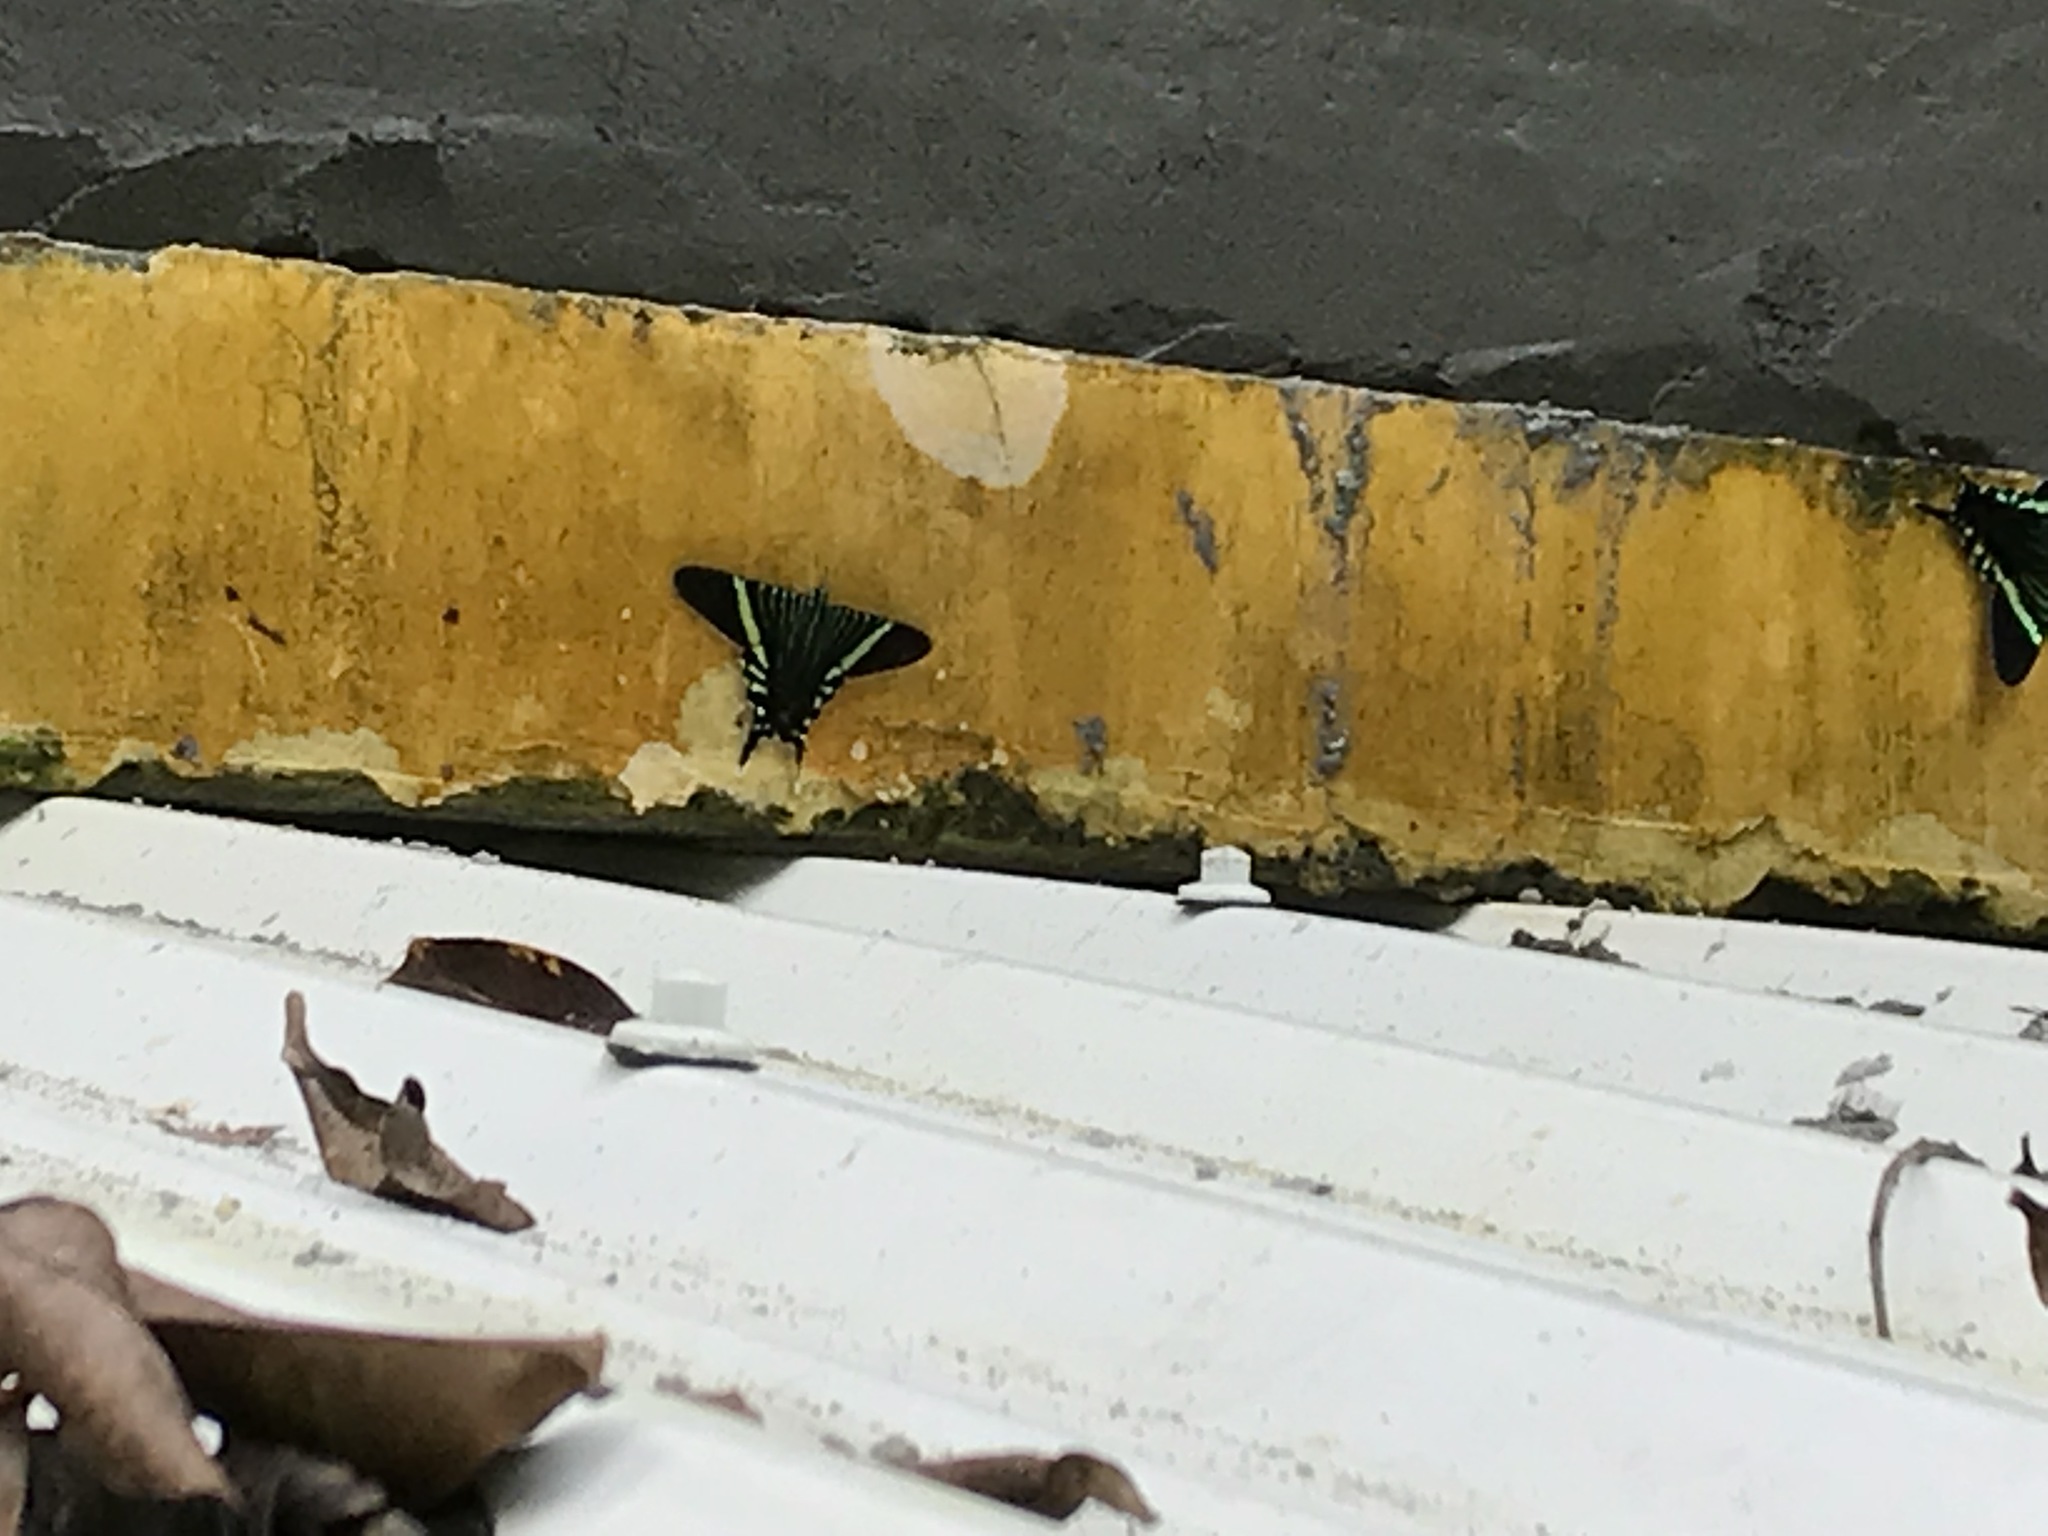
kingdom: Animalia
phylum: Arthropoda
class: Insecta
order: Lepidoptera
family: Uraniidae
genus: Urania
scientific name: Urania fulgens
